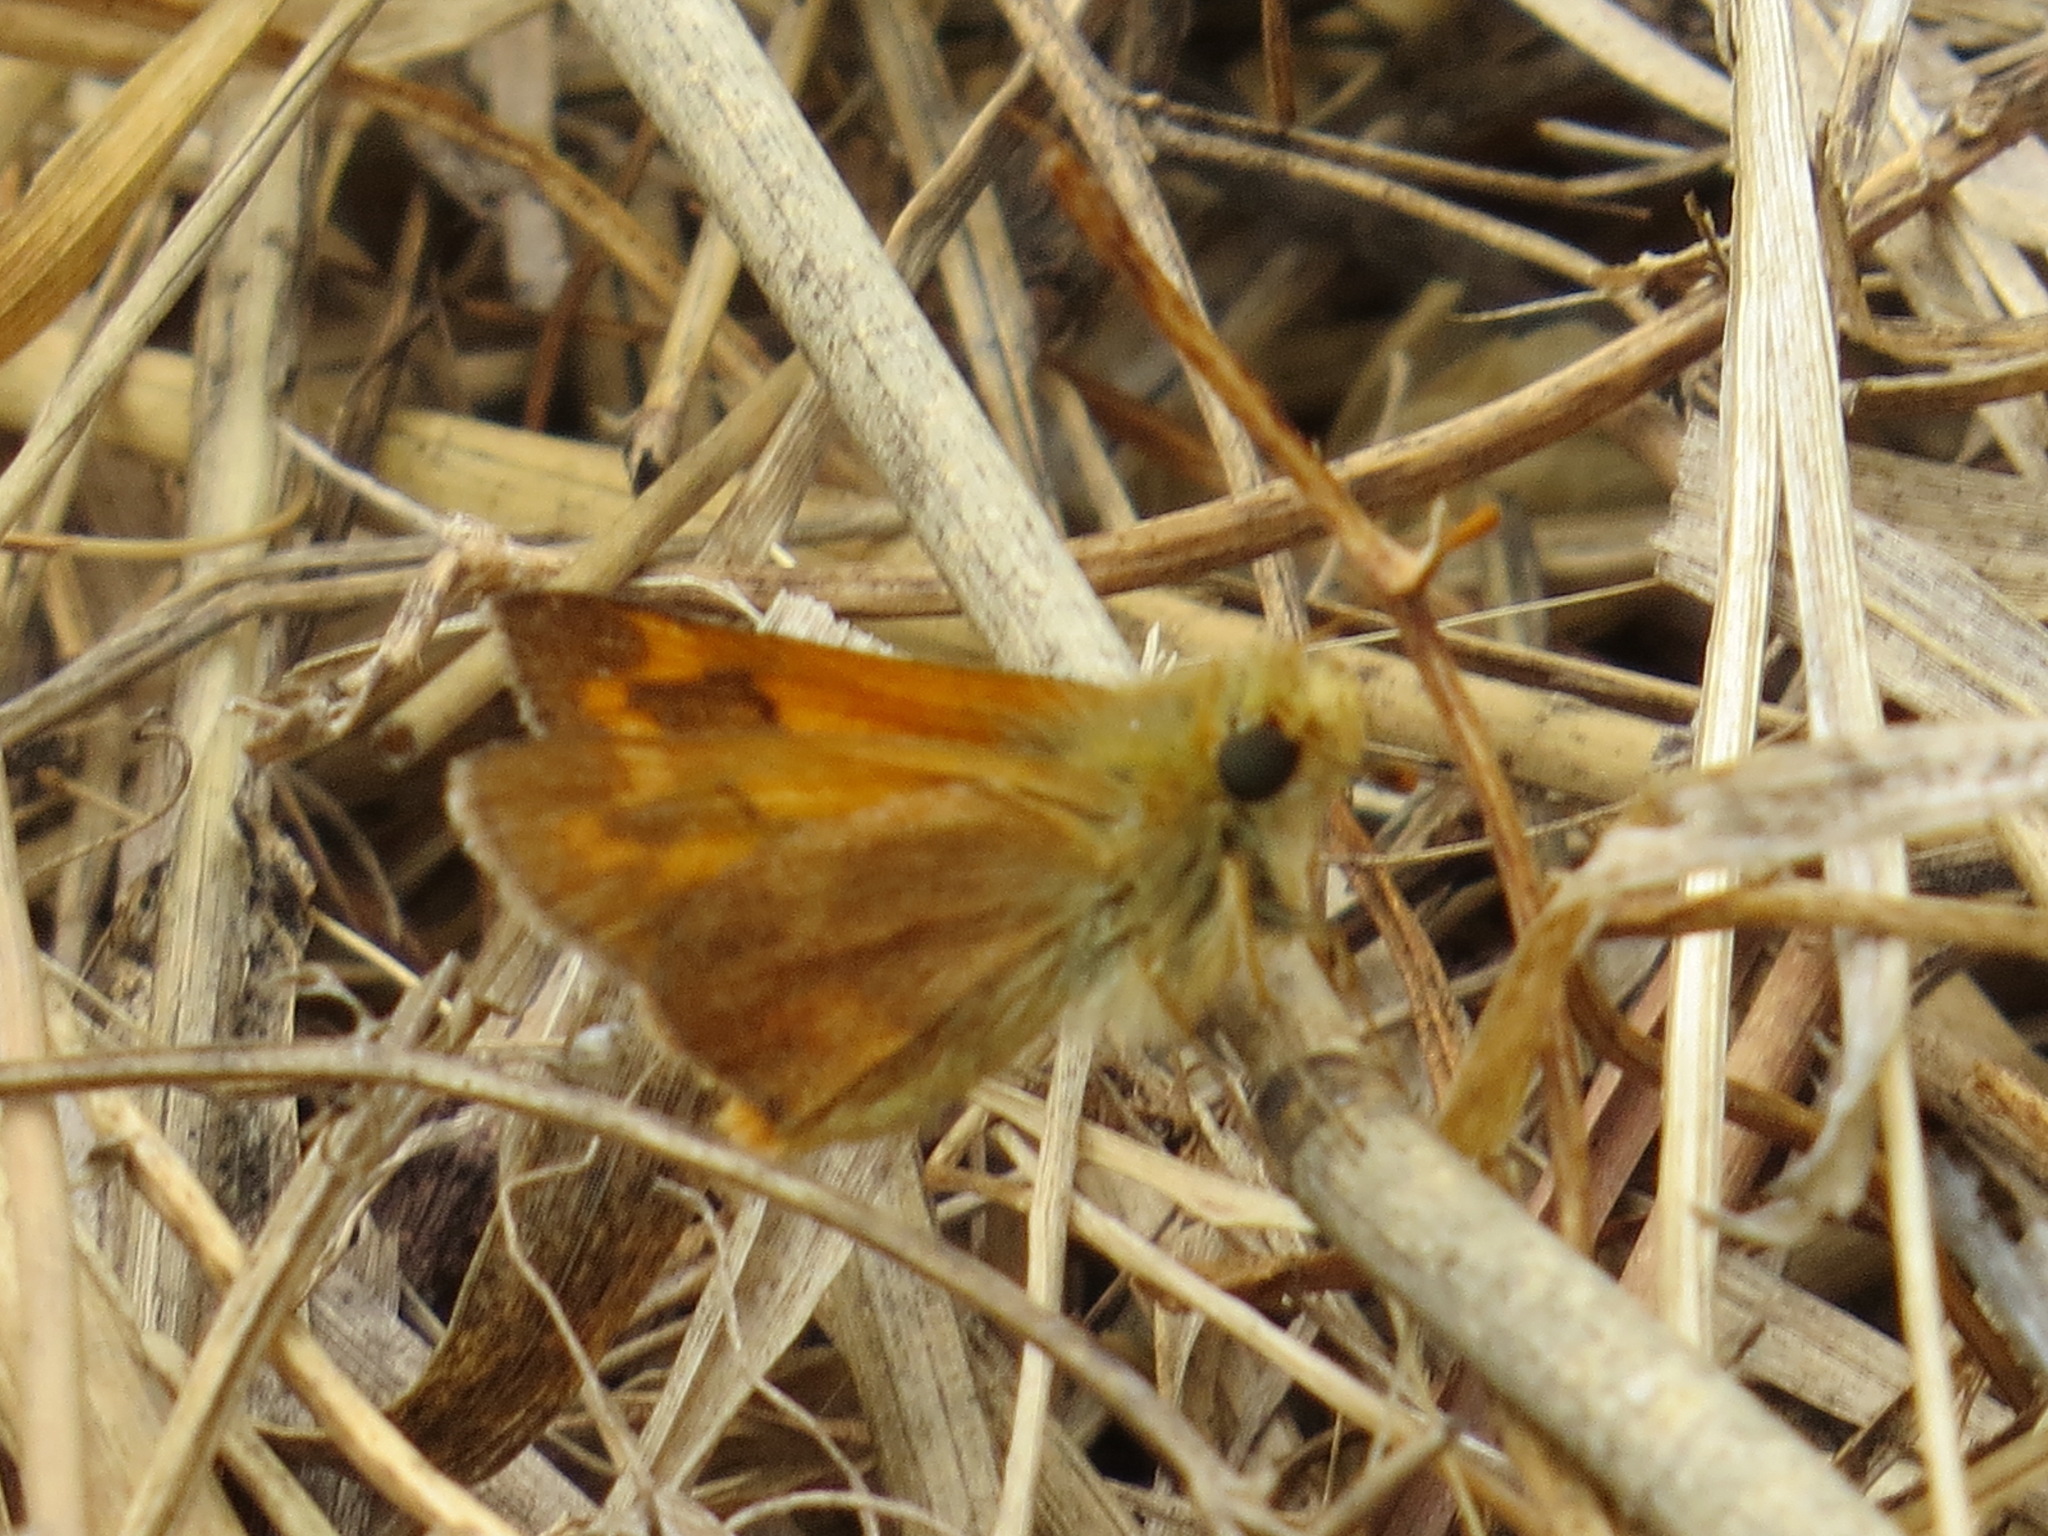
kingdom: Animalia
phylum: Arthropoda
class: Insecta
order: Lepidoptera
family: Hesperiidae
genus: Ochlodes
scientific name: Ochlodes sylvanoides
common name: Woodland skipper
